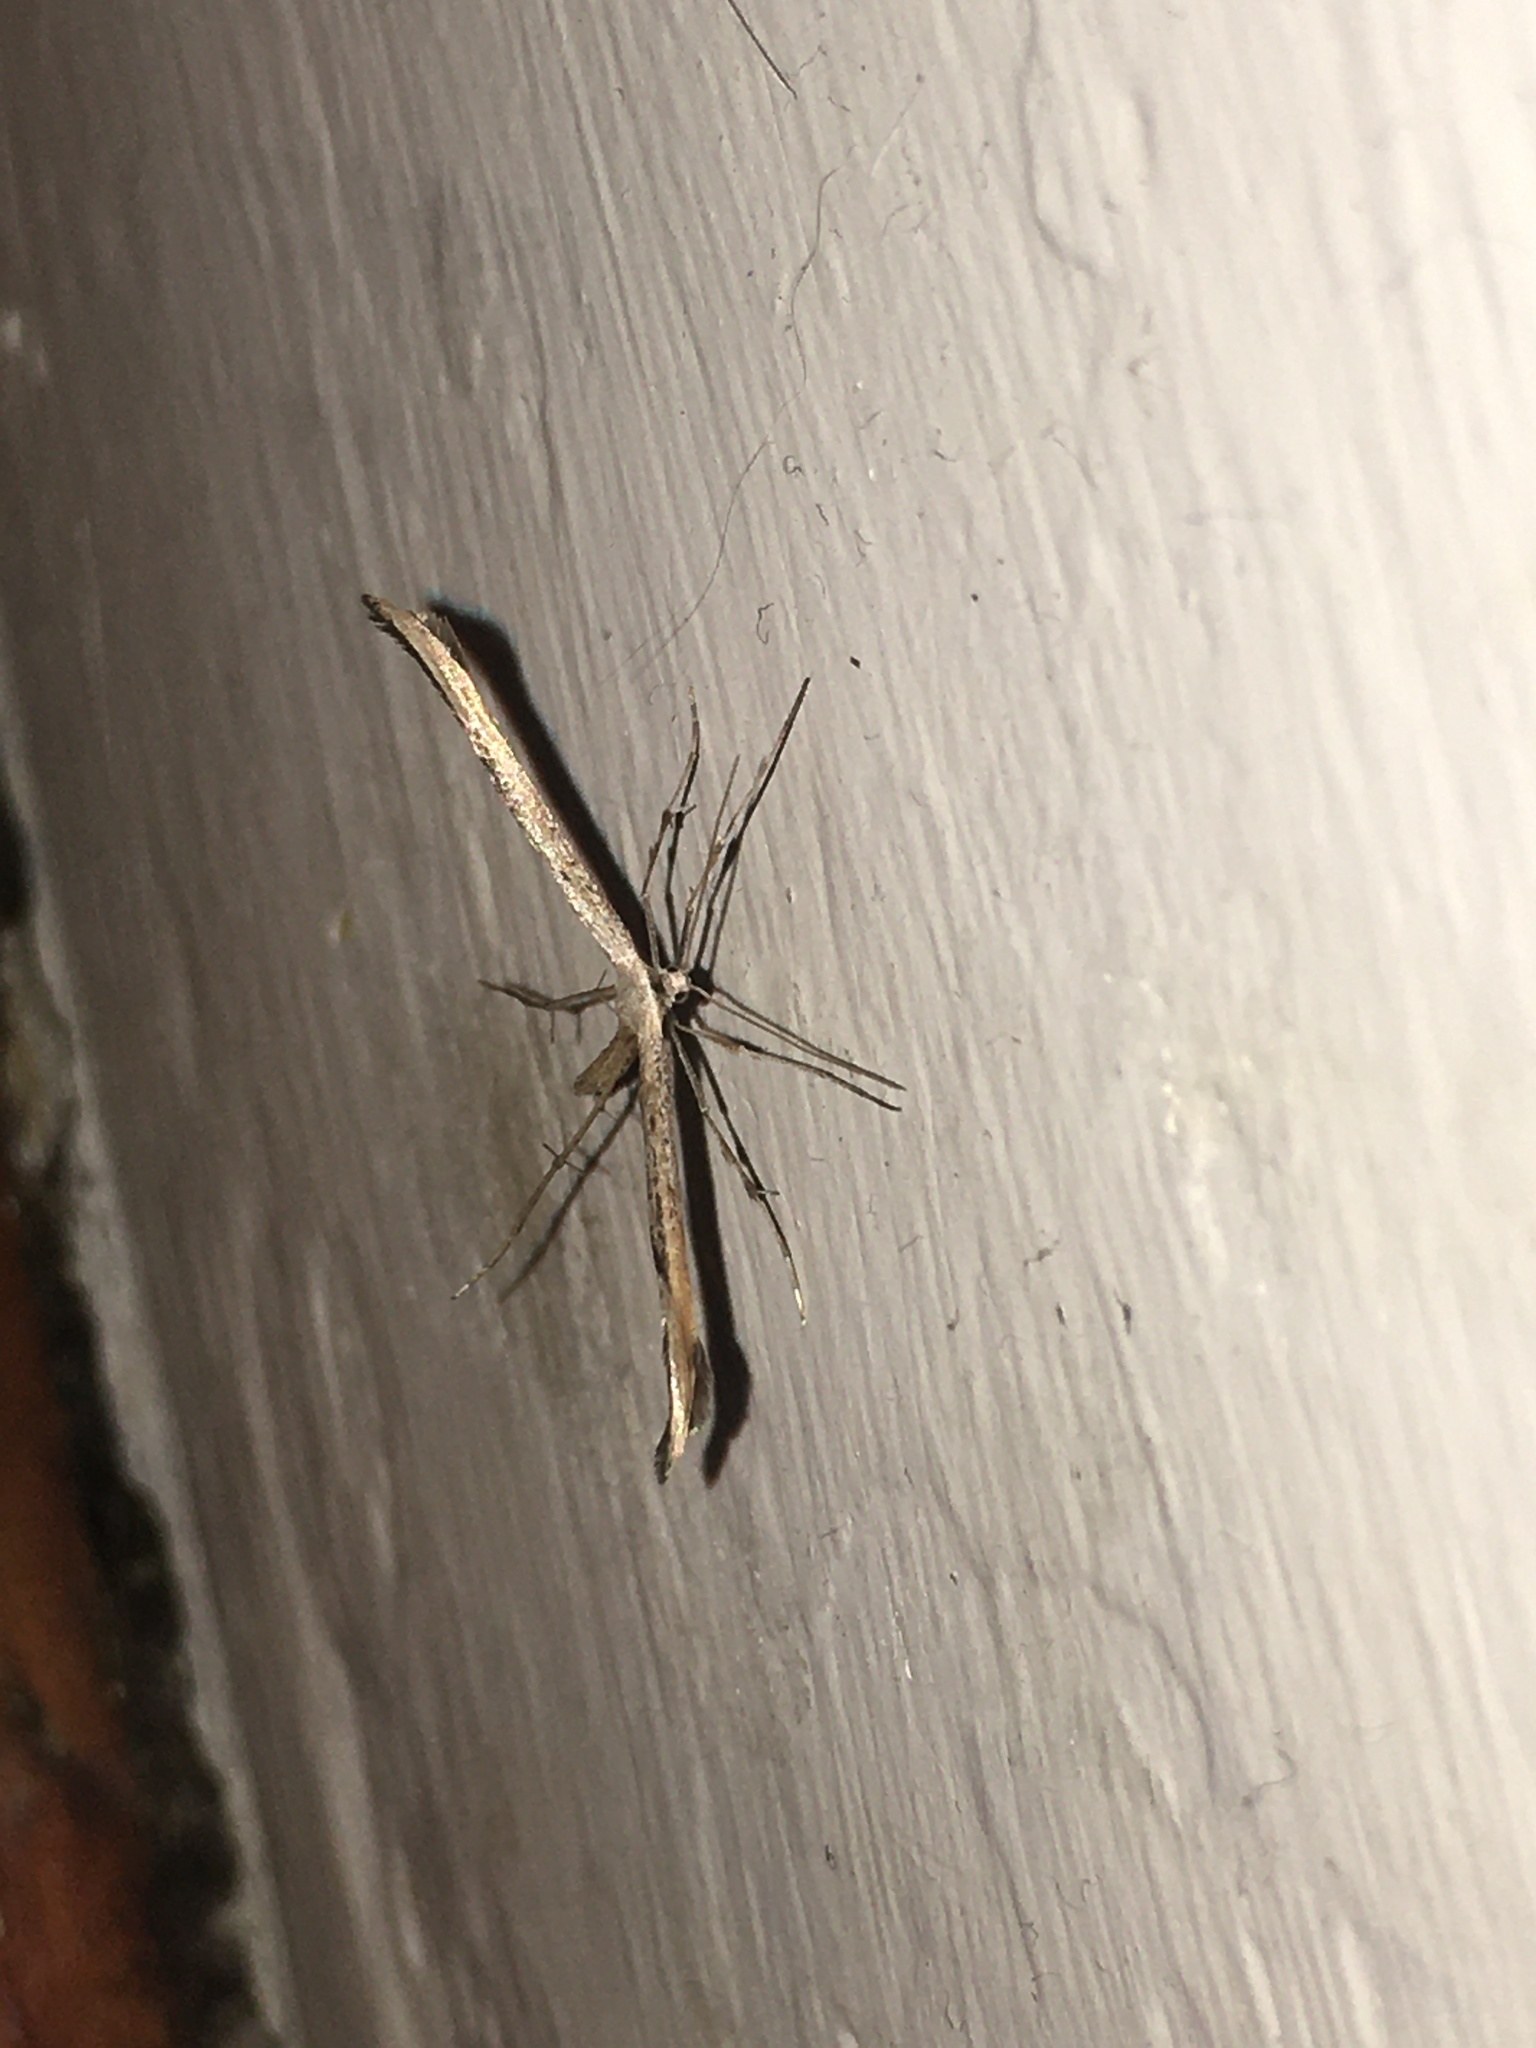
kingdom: Animalia
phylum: Arthropoda
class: Insecta
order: Lepidoptera
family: Pterophoridae
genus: Emmelina
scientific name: Emmelina monodactyla
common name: Common plume
